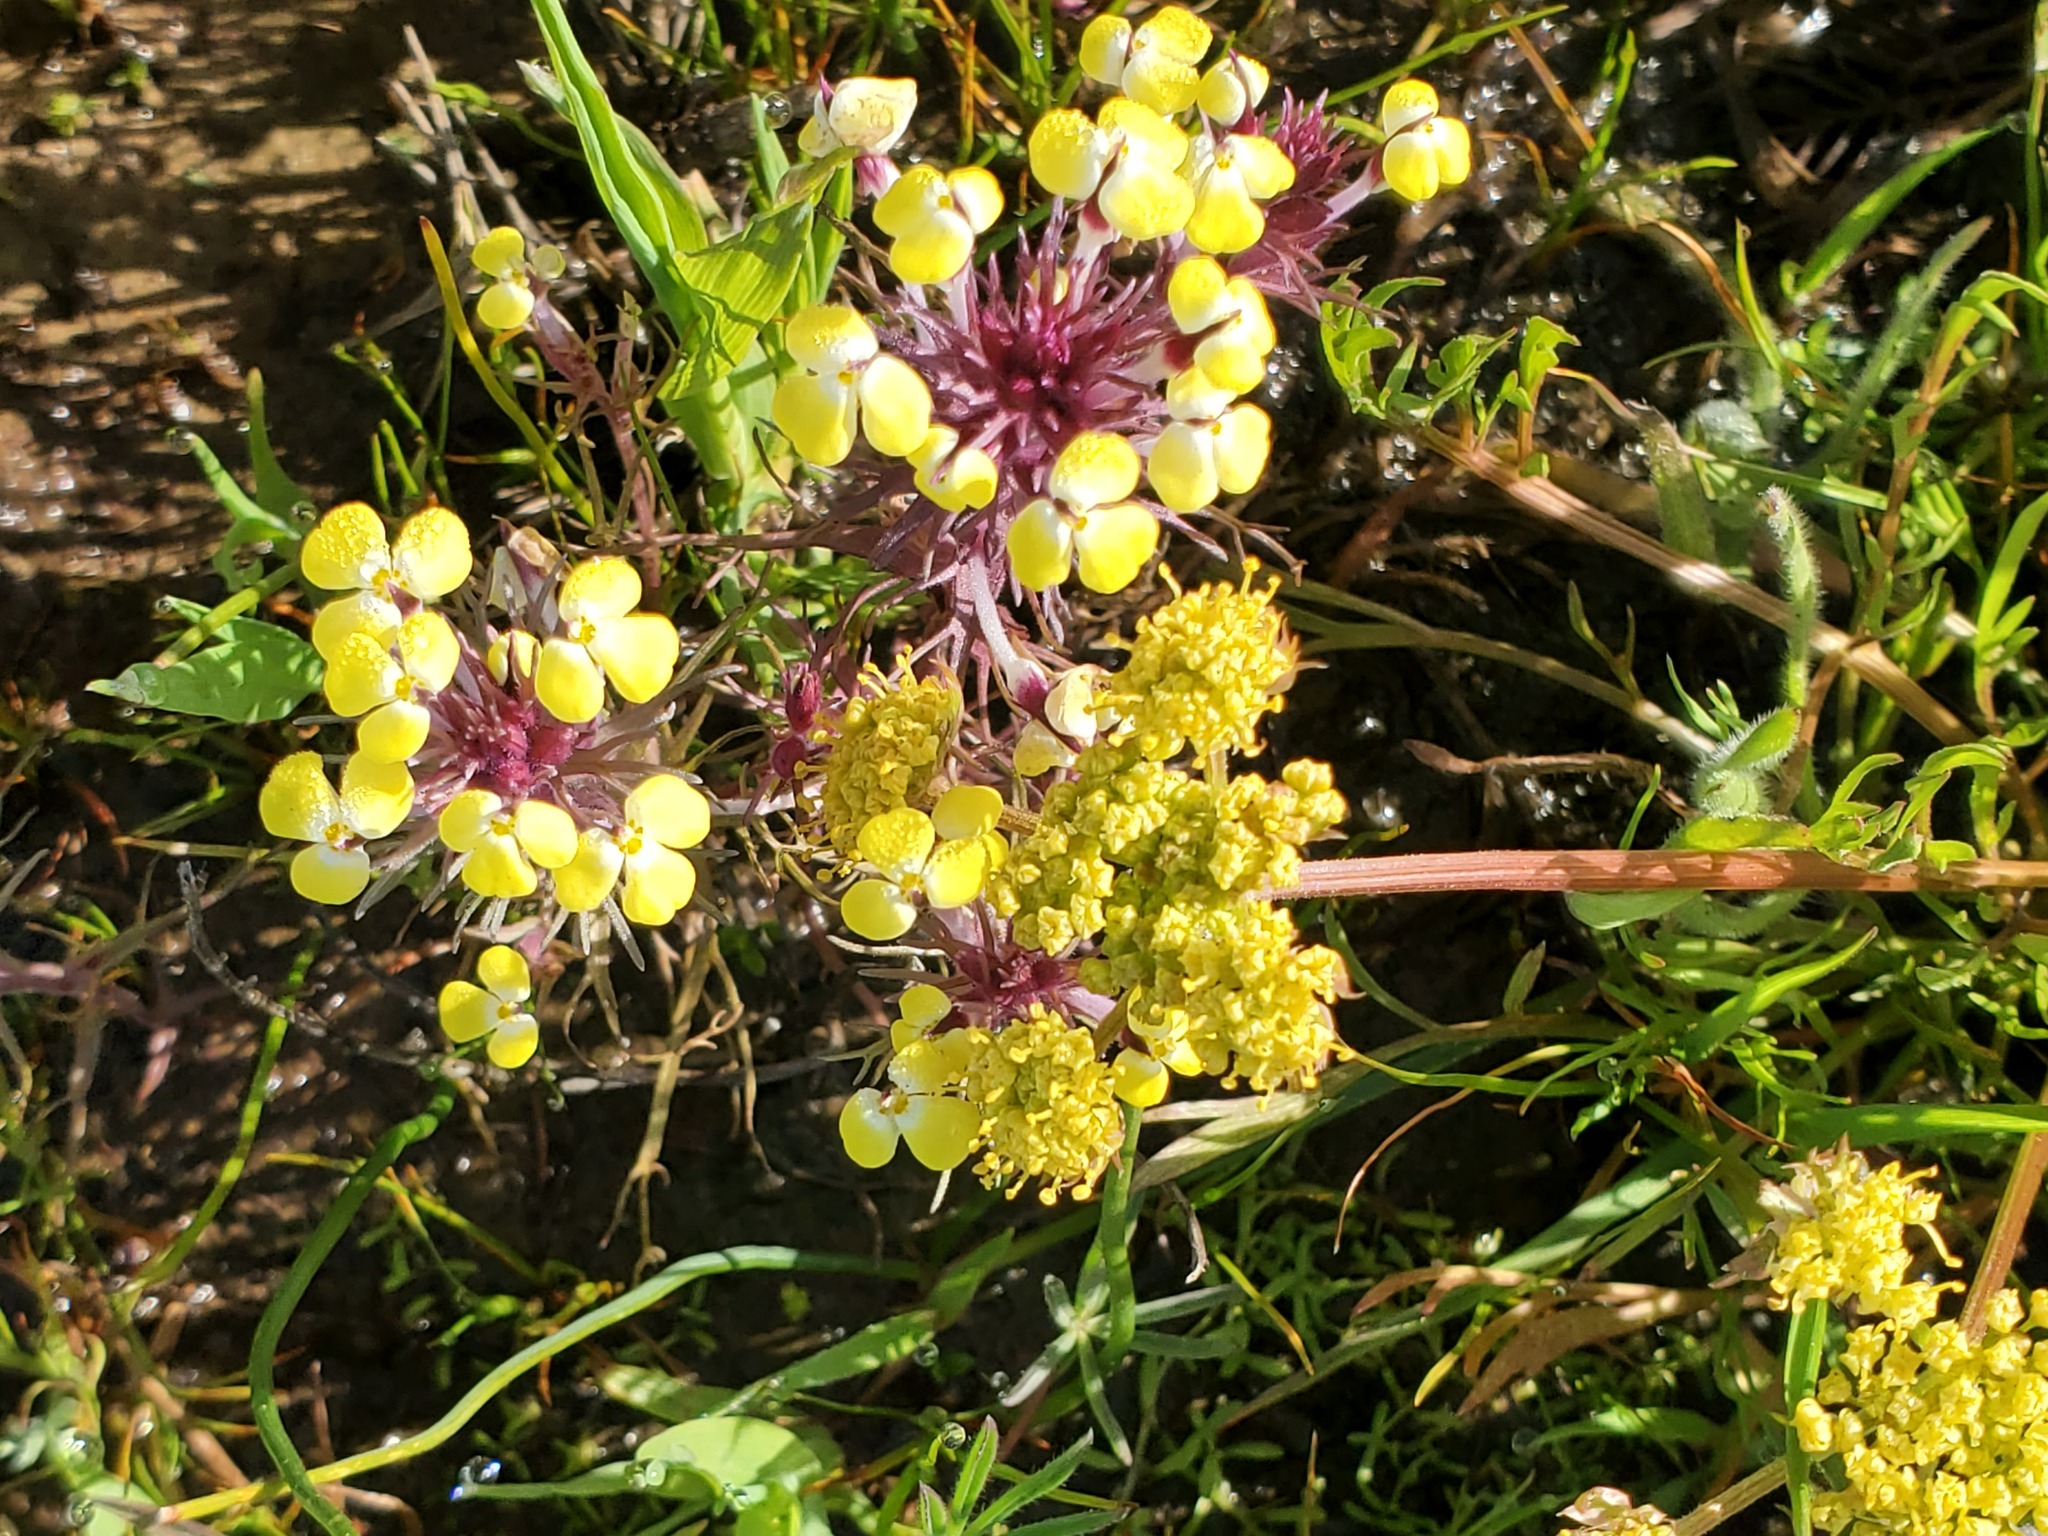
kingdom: Plantae
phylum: Tracheophyta
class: Magnoliopsida
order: Lamiales
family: Orobanchaceae
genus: Triphysaria
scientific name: Triphysaria eriantha
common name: Johnny-tuck
